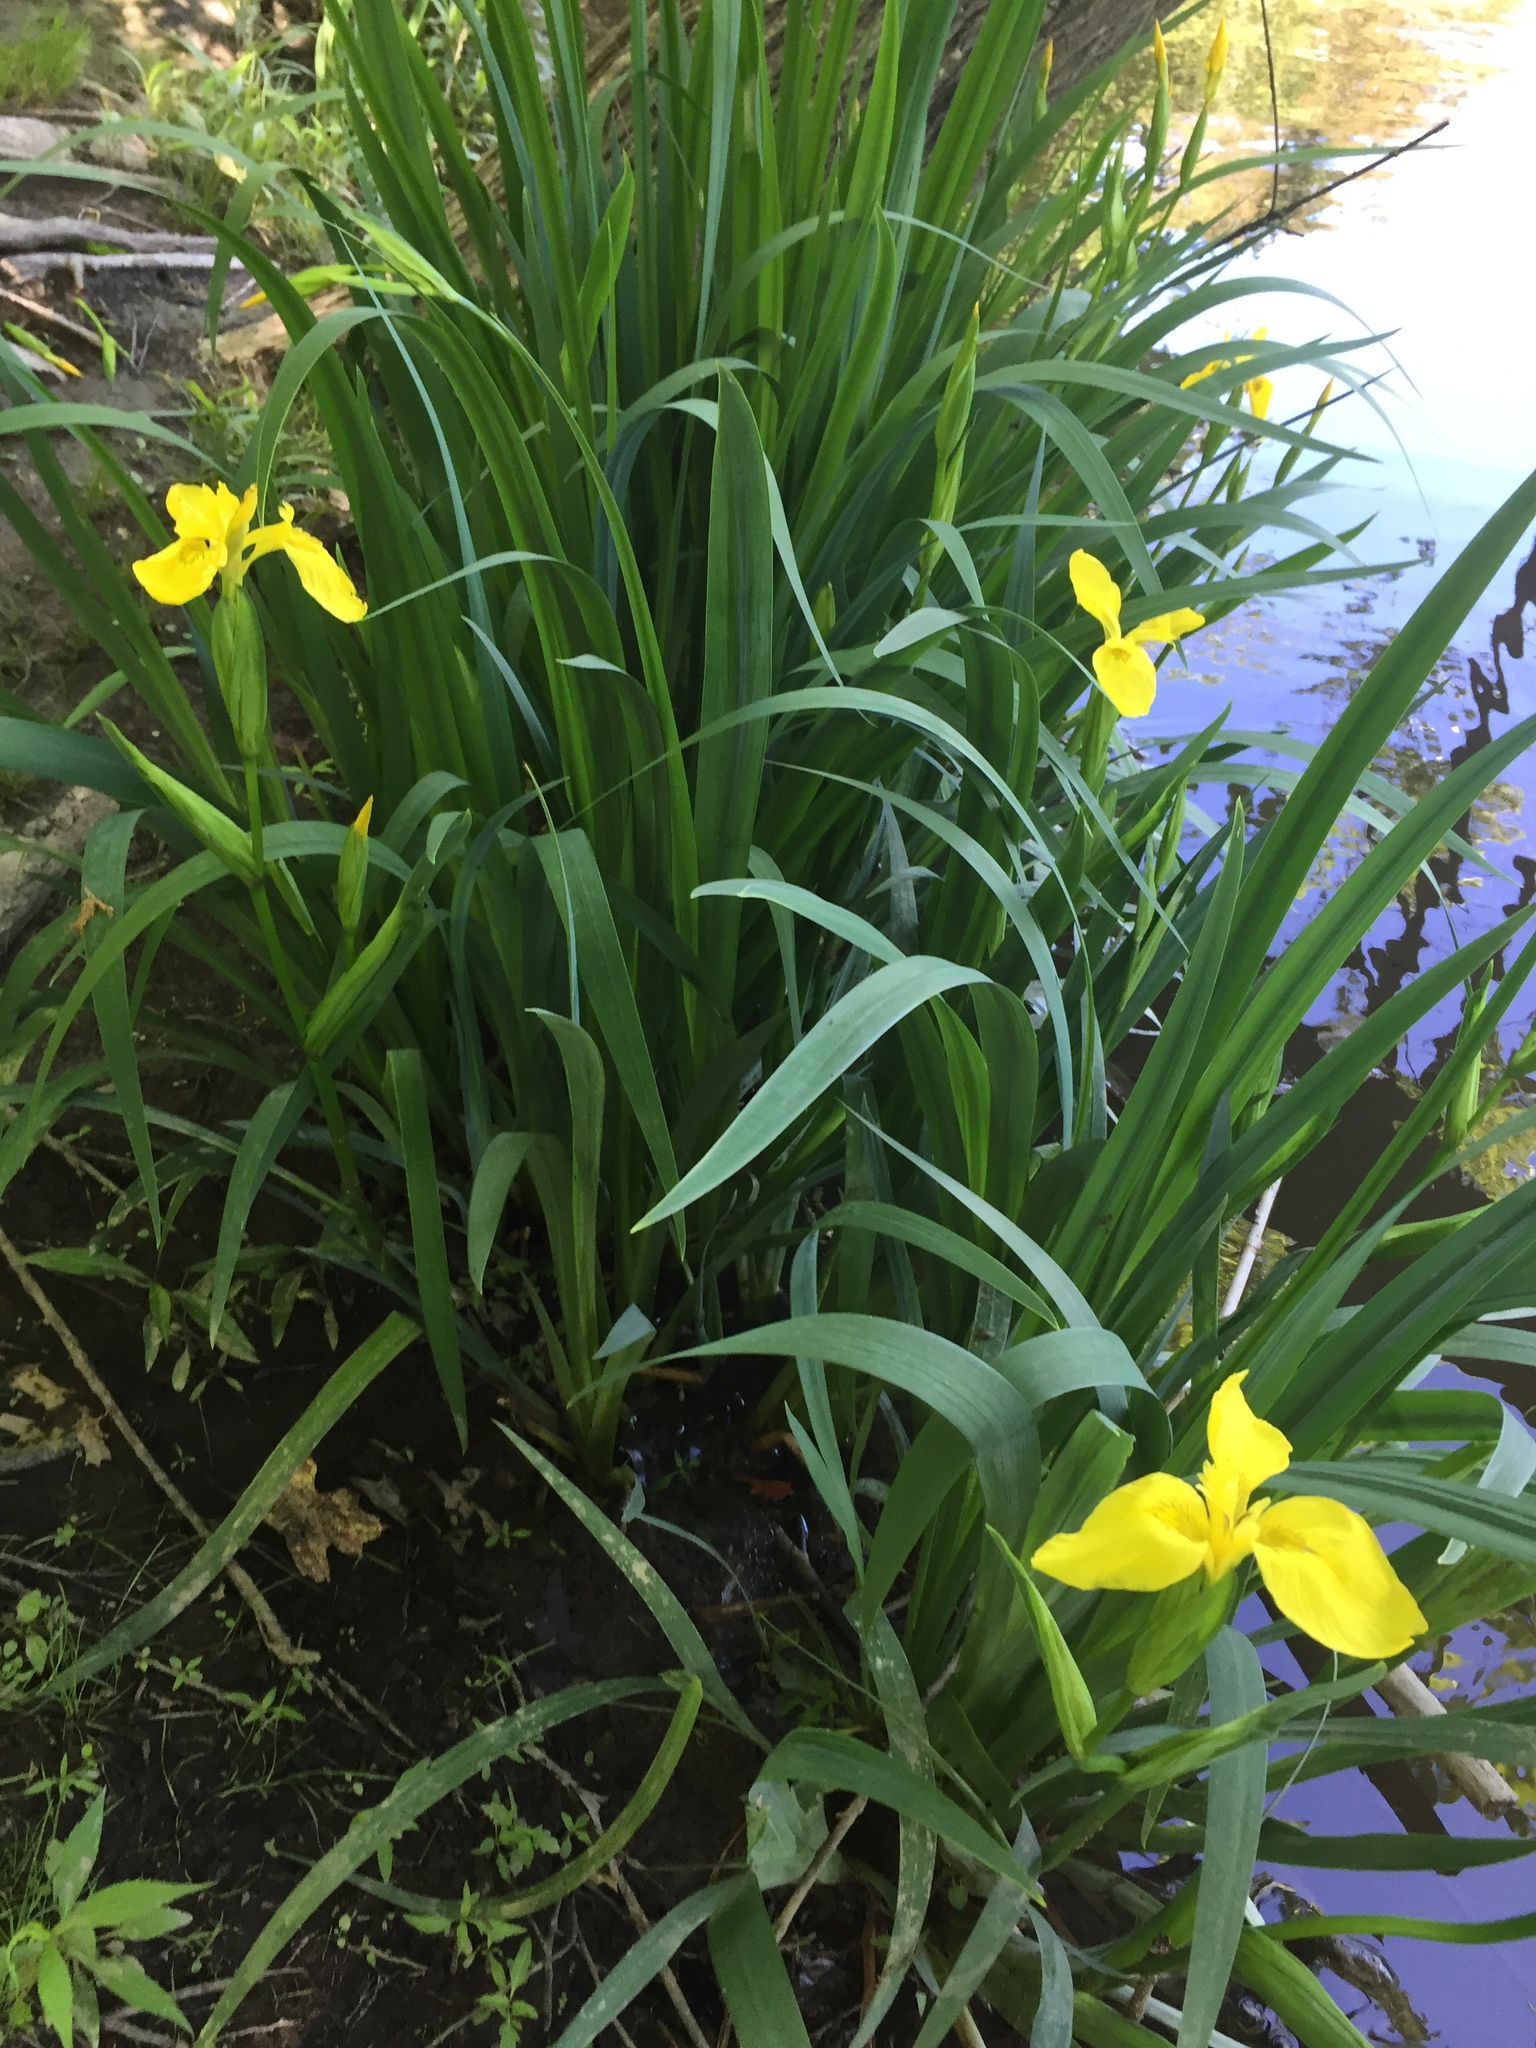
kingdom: Plantae
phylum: Tracheophyta
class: Liliopsida
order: Asparagales
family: Iridaceae
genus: Iris
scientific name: Iris pseudacorus
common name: Yellow flag
